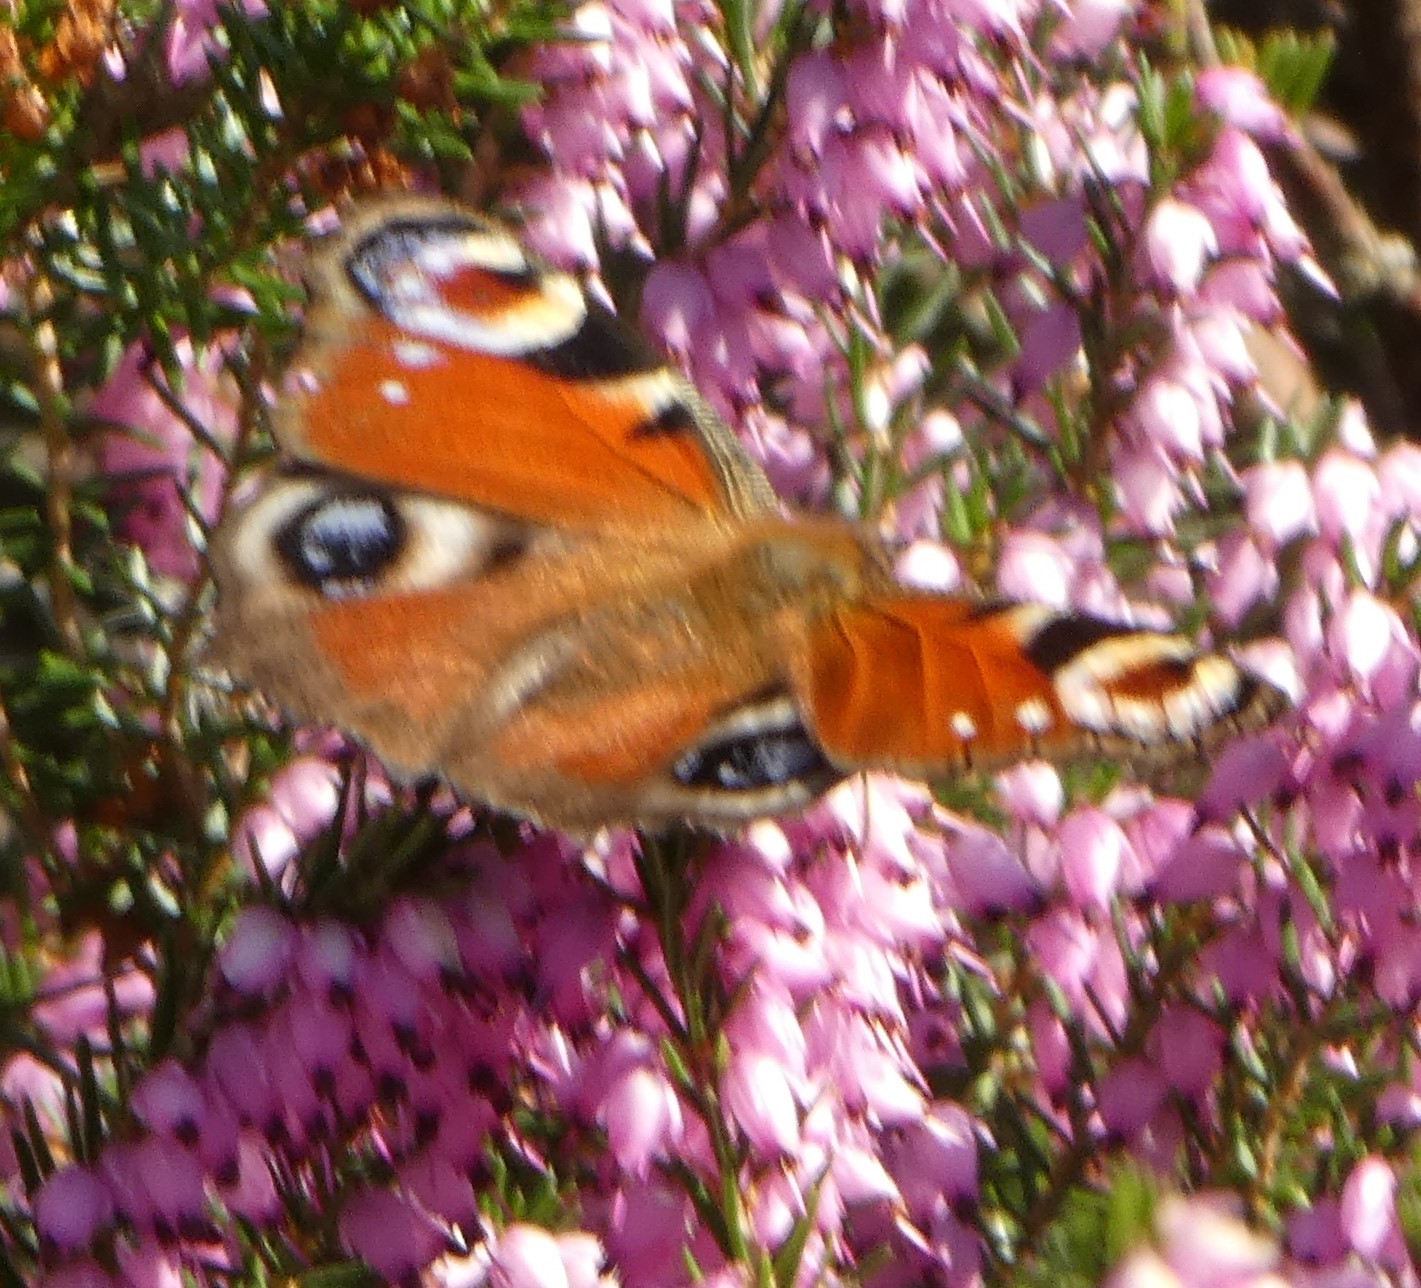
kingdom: Animalia
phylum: Arthropoda
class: Insecta
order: Lepidoptera
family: Nymphalidae
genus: Aglais
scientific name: Aglais io
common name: Peacock
